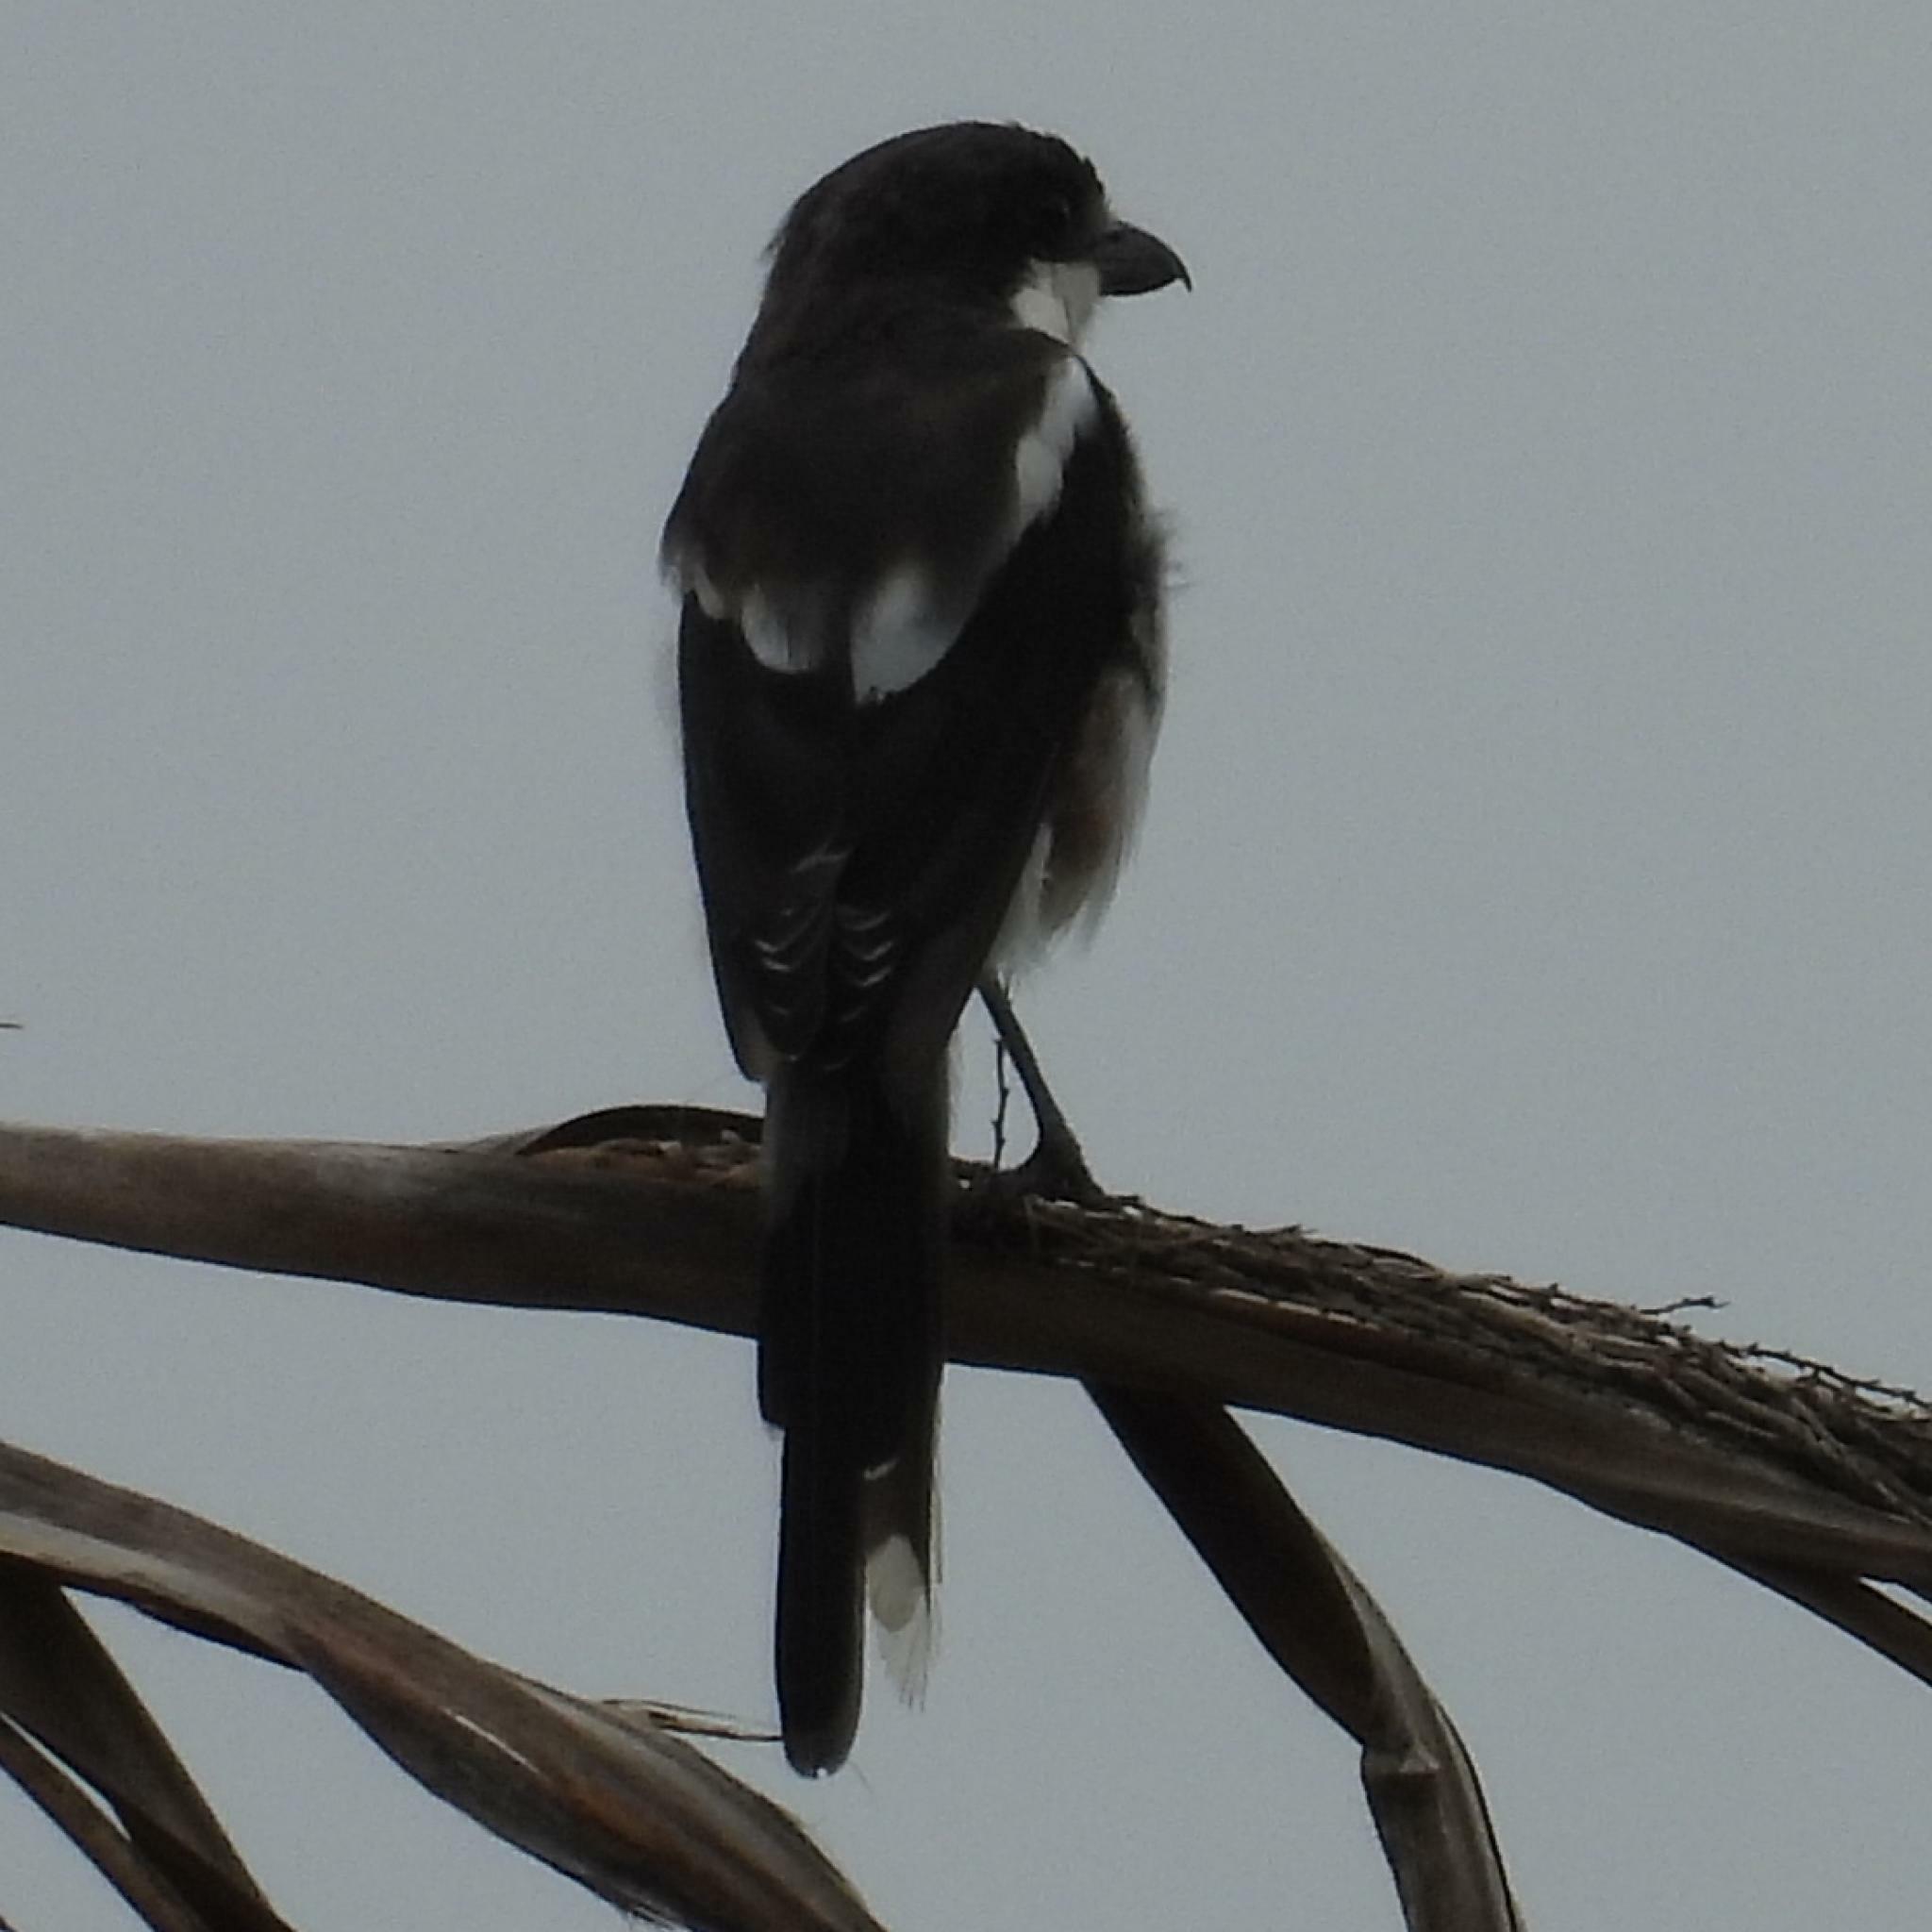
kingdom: Animalia
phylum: Chordata
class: Aves
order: Passeriformes
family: Laniidae
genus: Lanius
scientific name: Lanius collaris
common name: Southern fiscal
